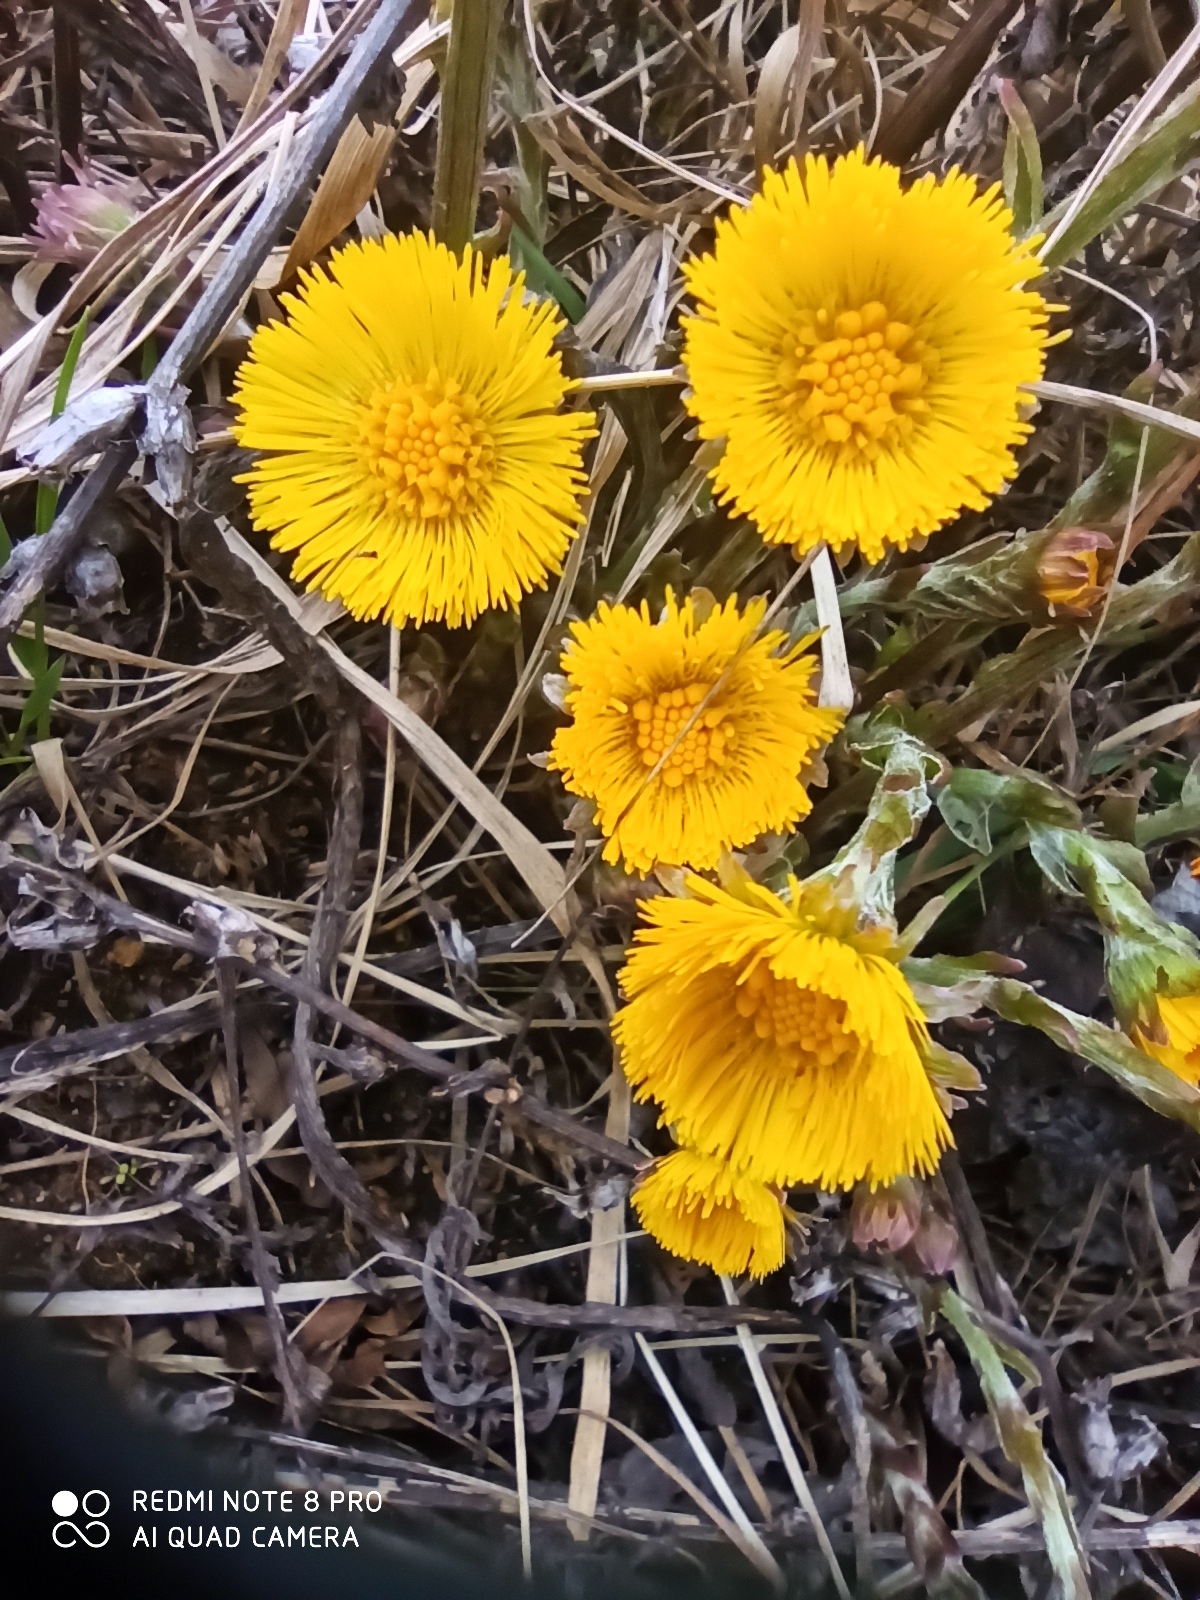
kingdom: Plantae
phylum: Tracheophyta
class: Magnoliopsida
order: Asterales
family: Asteraceae
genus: Tussilago
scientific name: Tussilago farfara
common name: Coltsfoot
